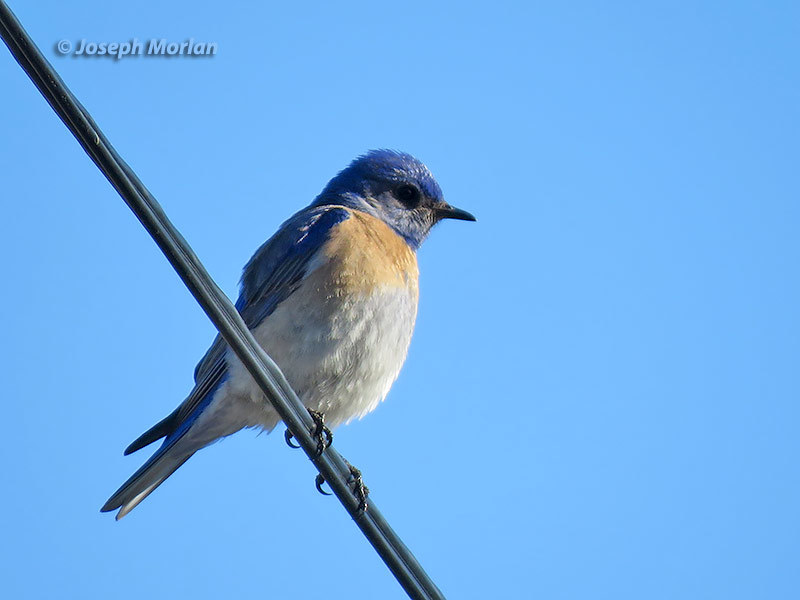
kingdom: Animalia
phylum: Chordata
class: Aves
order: Passeriformes
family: Turdidae
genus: Sialia
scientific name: Sialia mexicana
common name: Western bluebird
